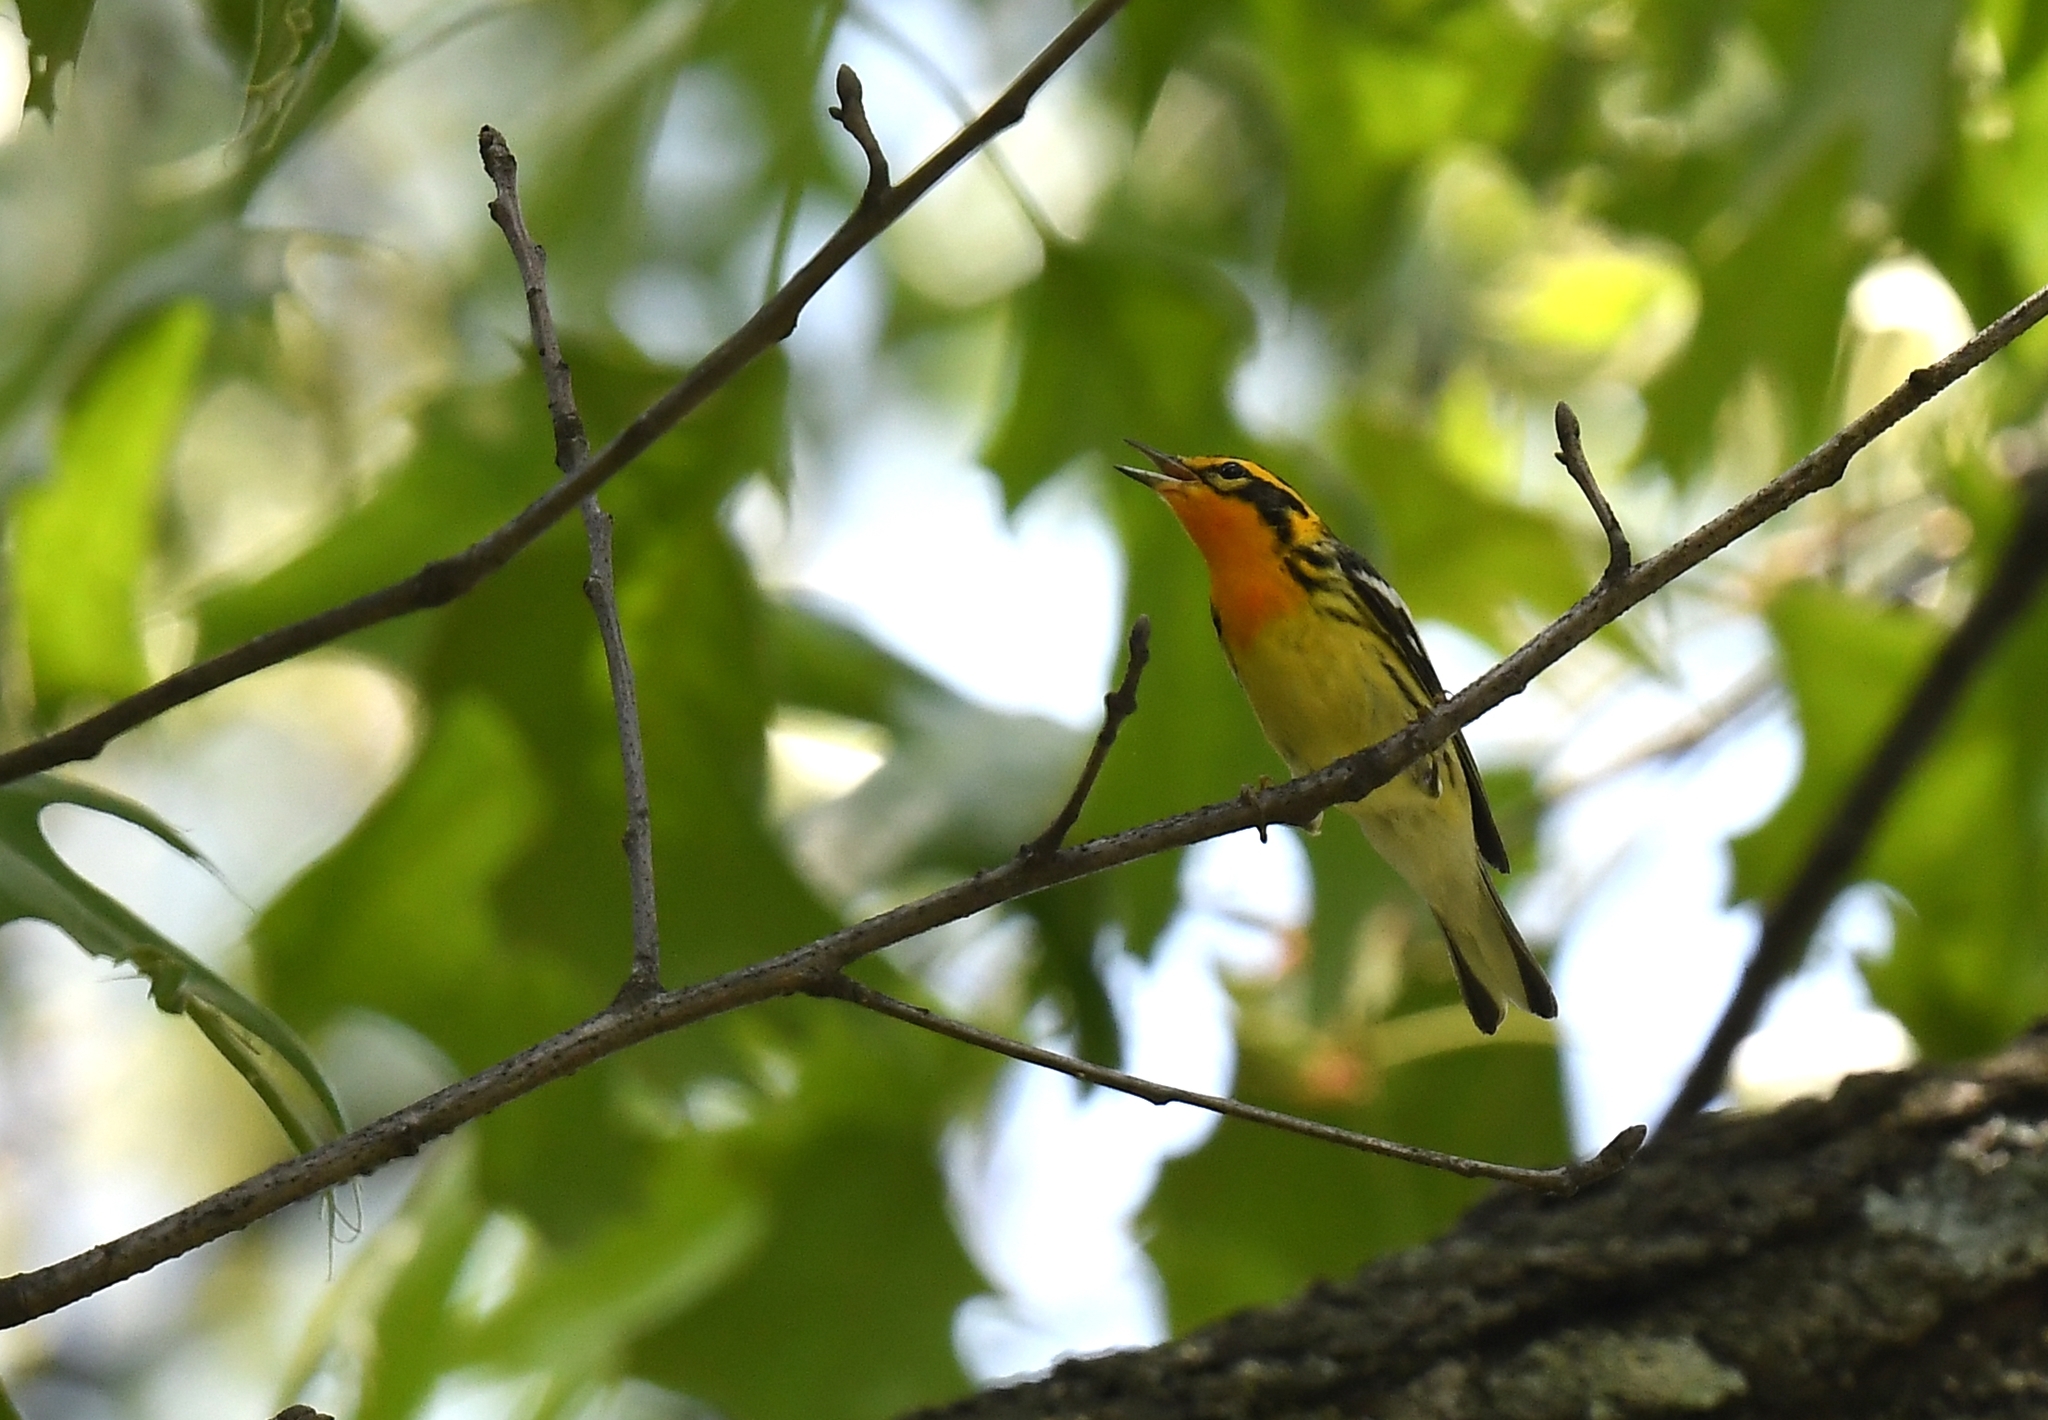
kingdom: Animalia
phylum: Chordata
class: Aves
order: Passeriformes
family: Parulidae
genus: Setophaga
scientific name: Setophaga fusca
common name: Blackburnian warbler
